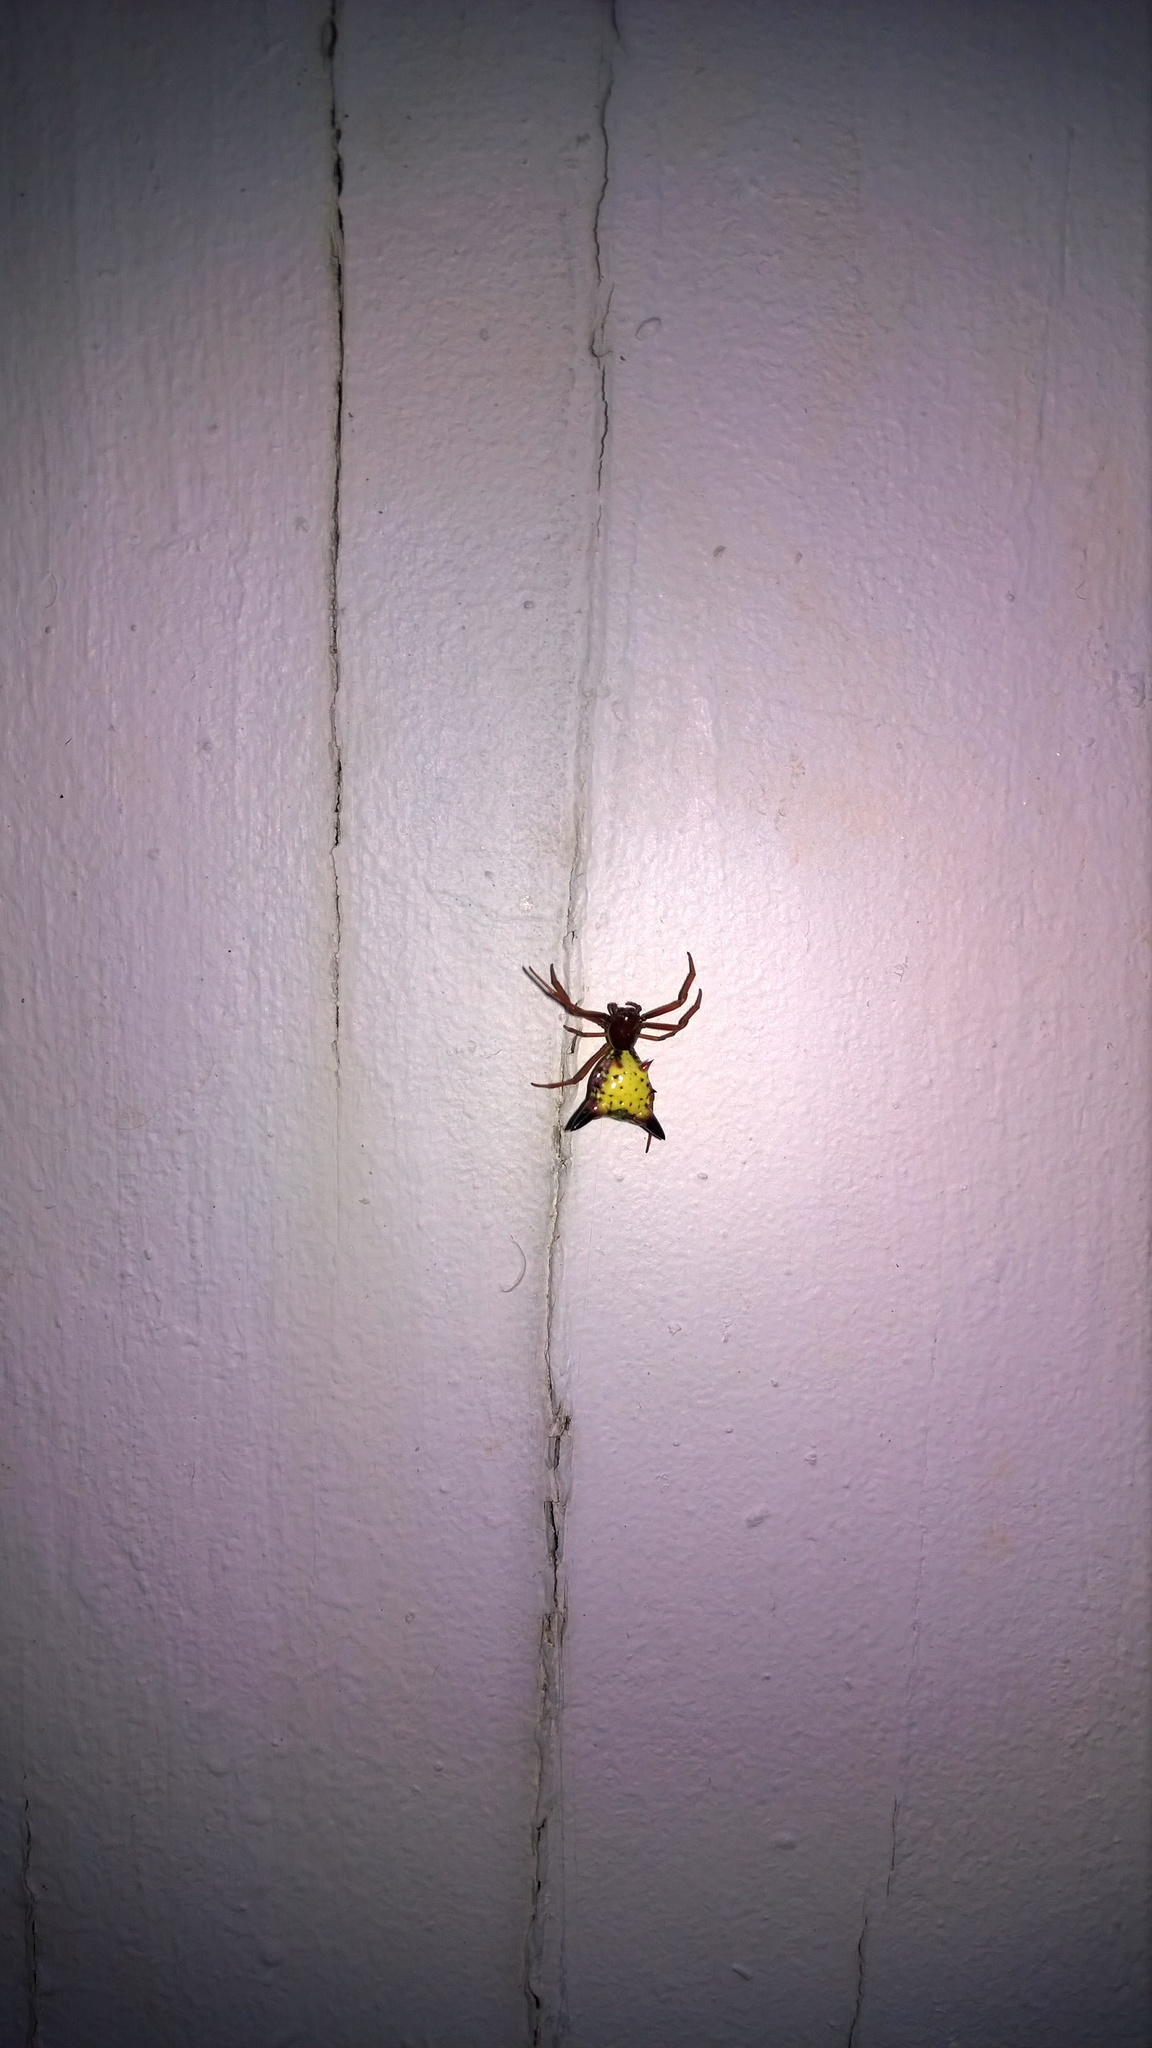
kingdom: Animalia
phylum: Arthropoda
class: Arachnida
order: Araneae
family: Araneidae
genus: Micrathena
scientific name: Micrathena sagittata
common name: Orb weavers
